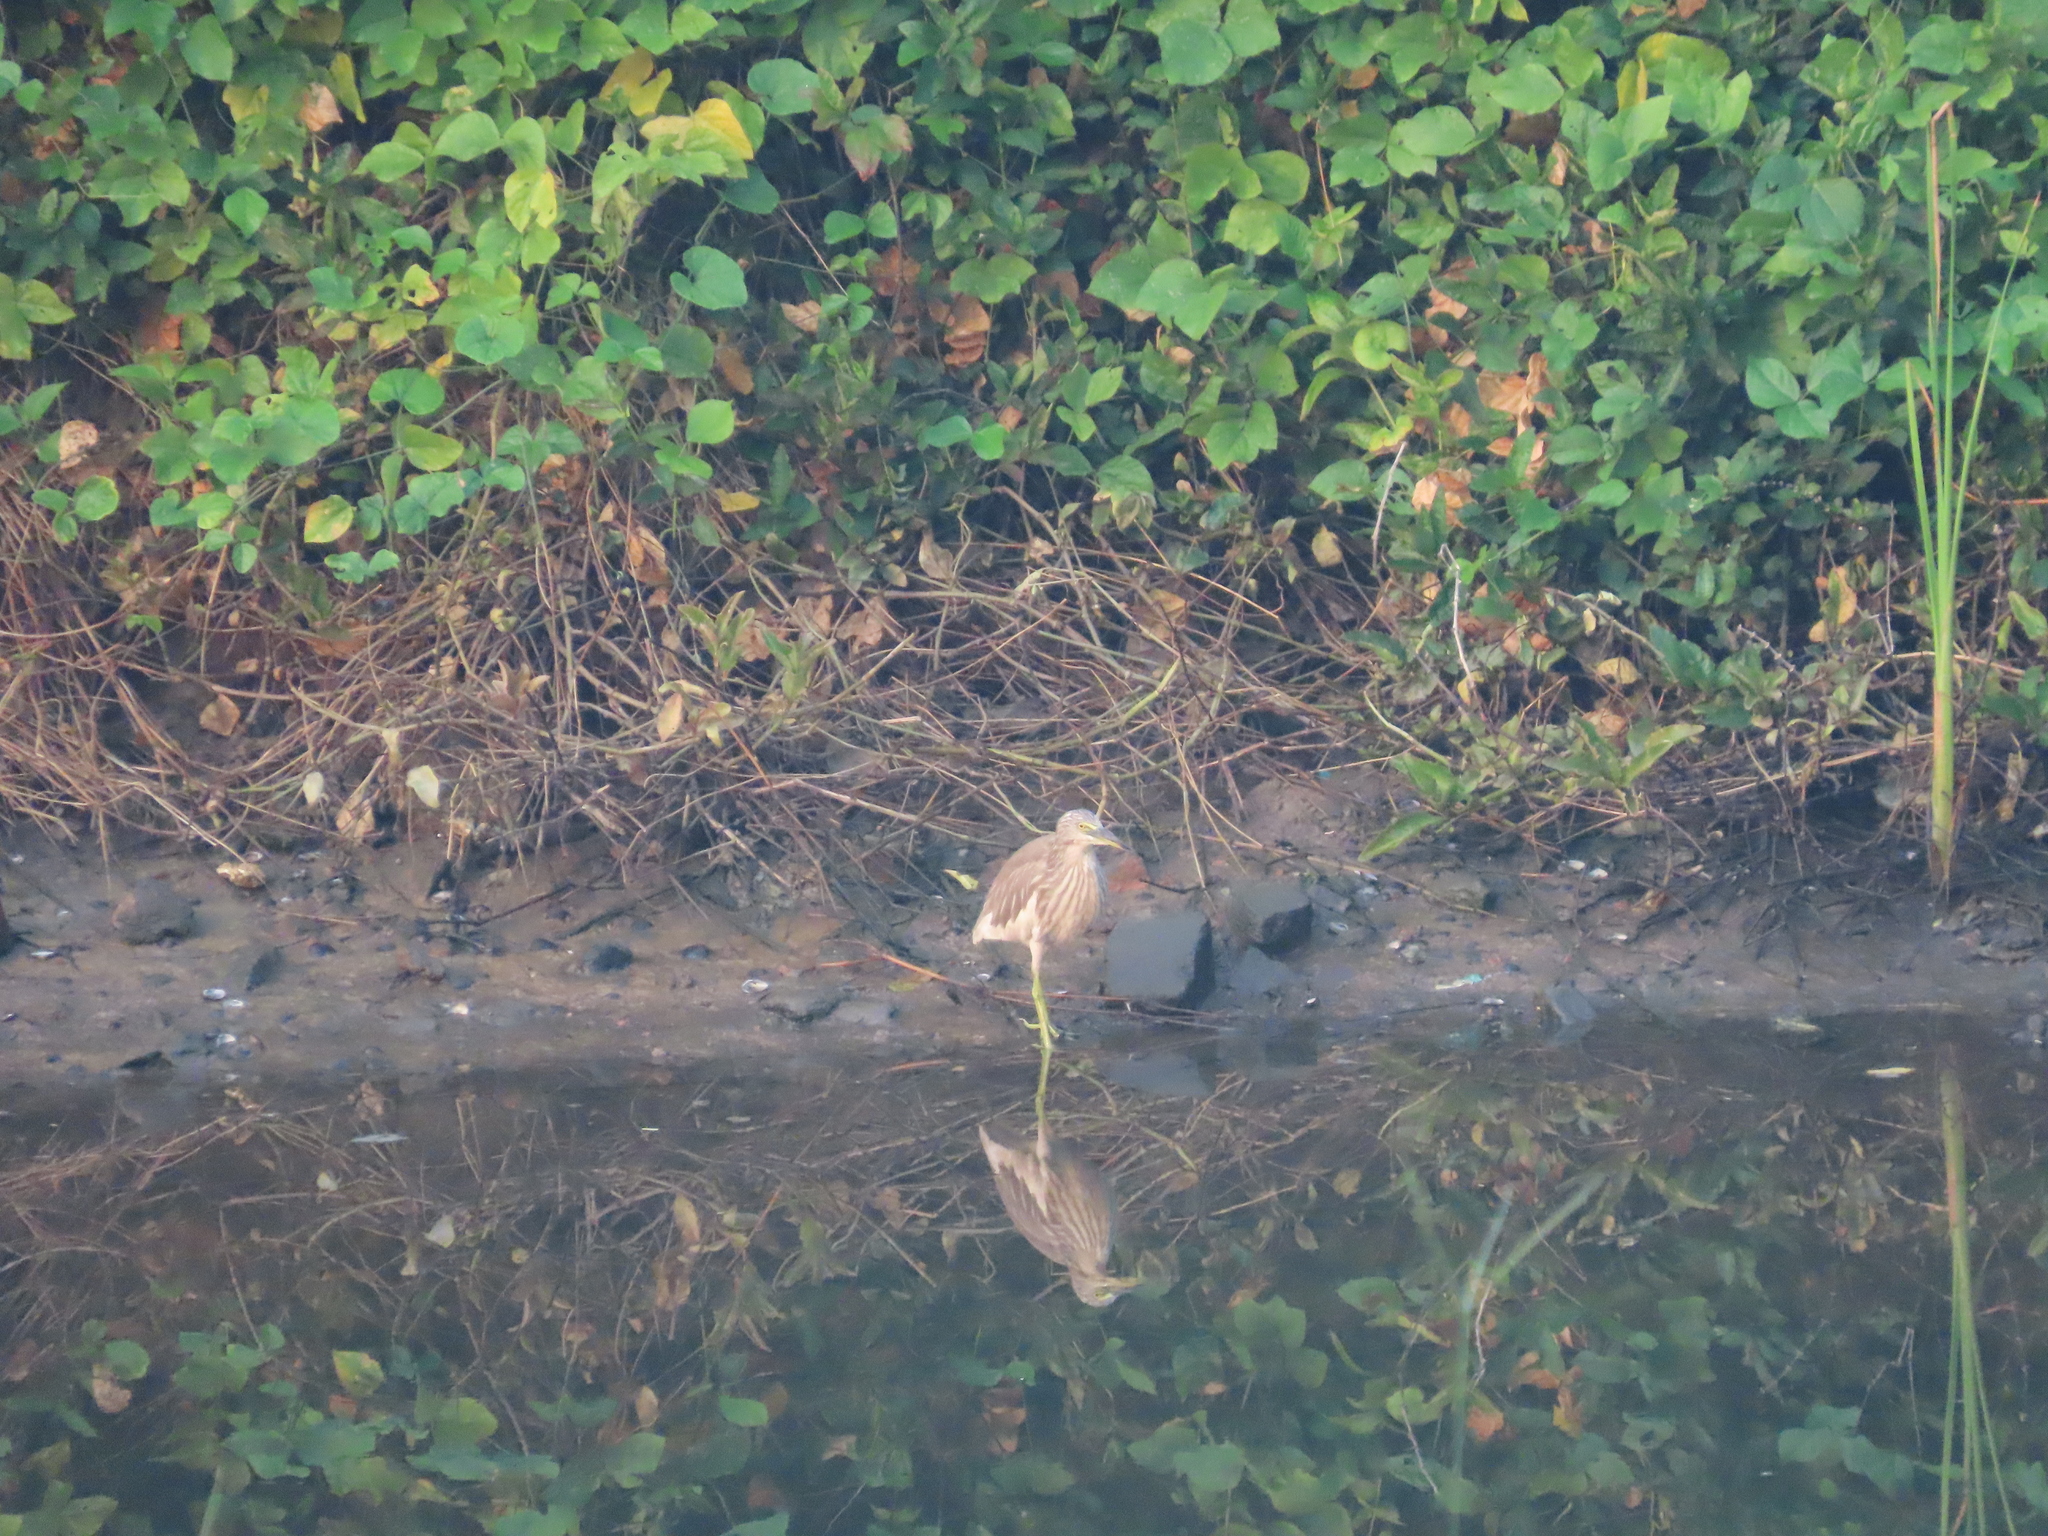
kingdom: Animalia
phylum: Chordata
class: Aves
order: Pelecaniformes
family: Ardeidae
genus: Ardeola
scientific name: Ardeola grayii
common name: Indian pond heron
